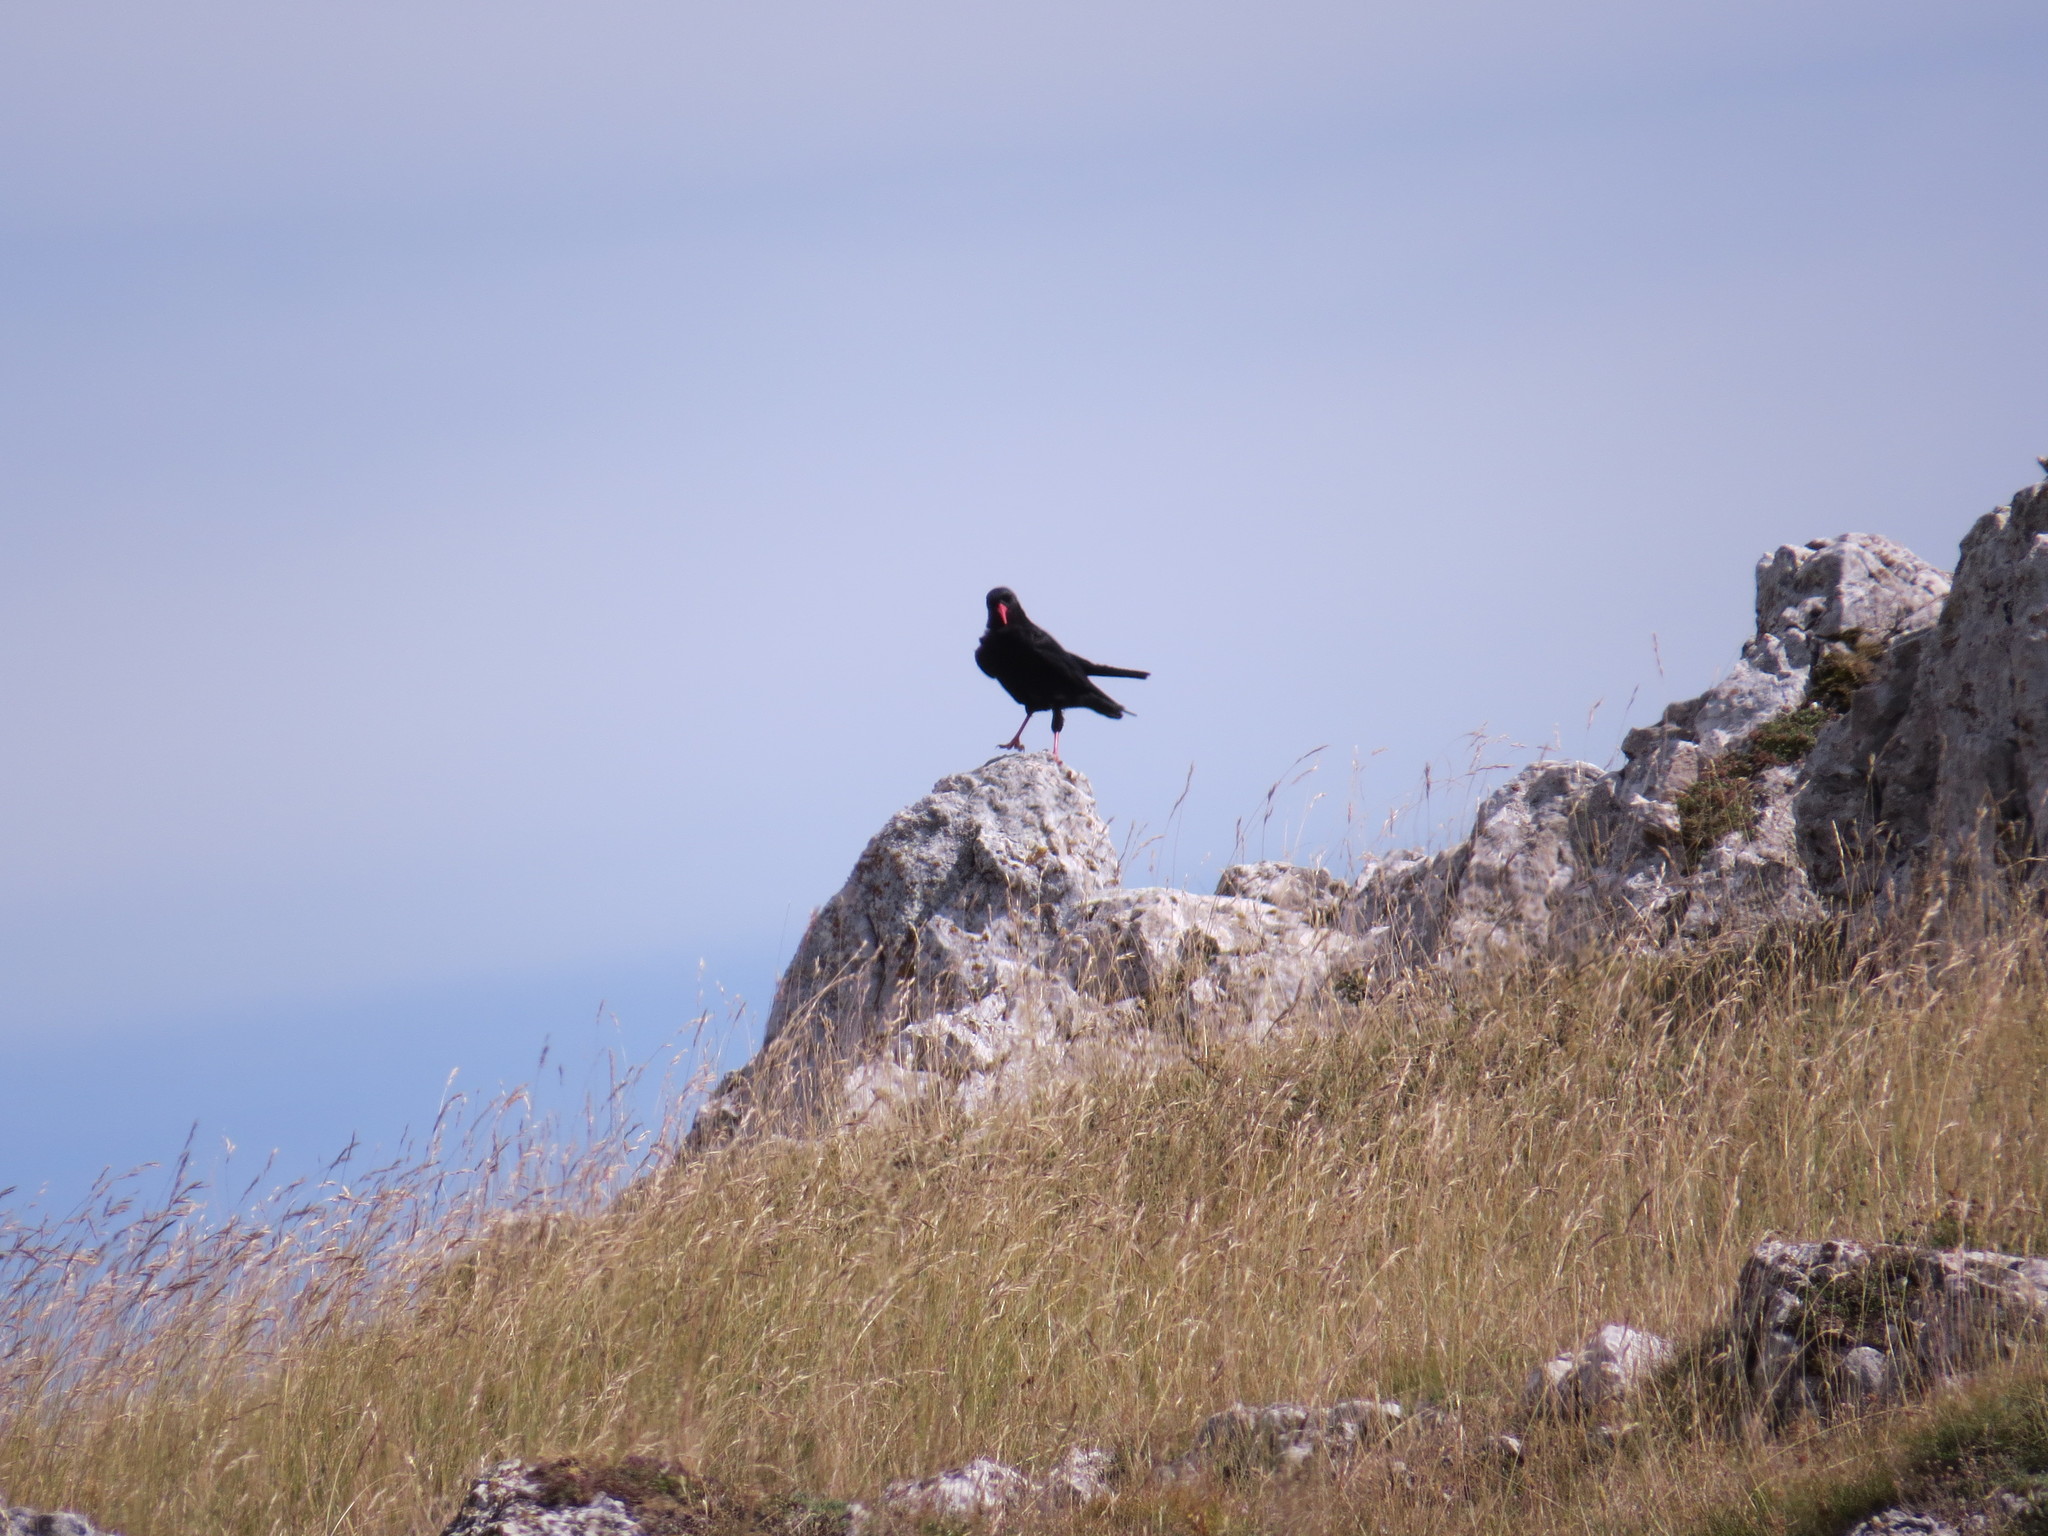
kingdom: Animalia
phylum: Chordata
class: Aves
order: Passeriformes
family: Corvidae
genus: Pyrrhocorax
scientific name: Pyrrhocorax pyrrhocorax
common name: Red-billed chough
